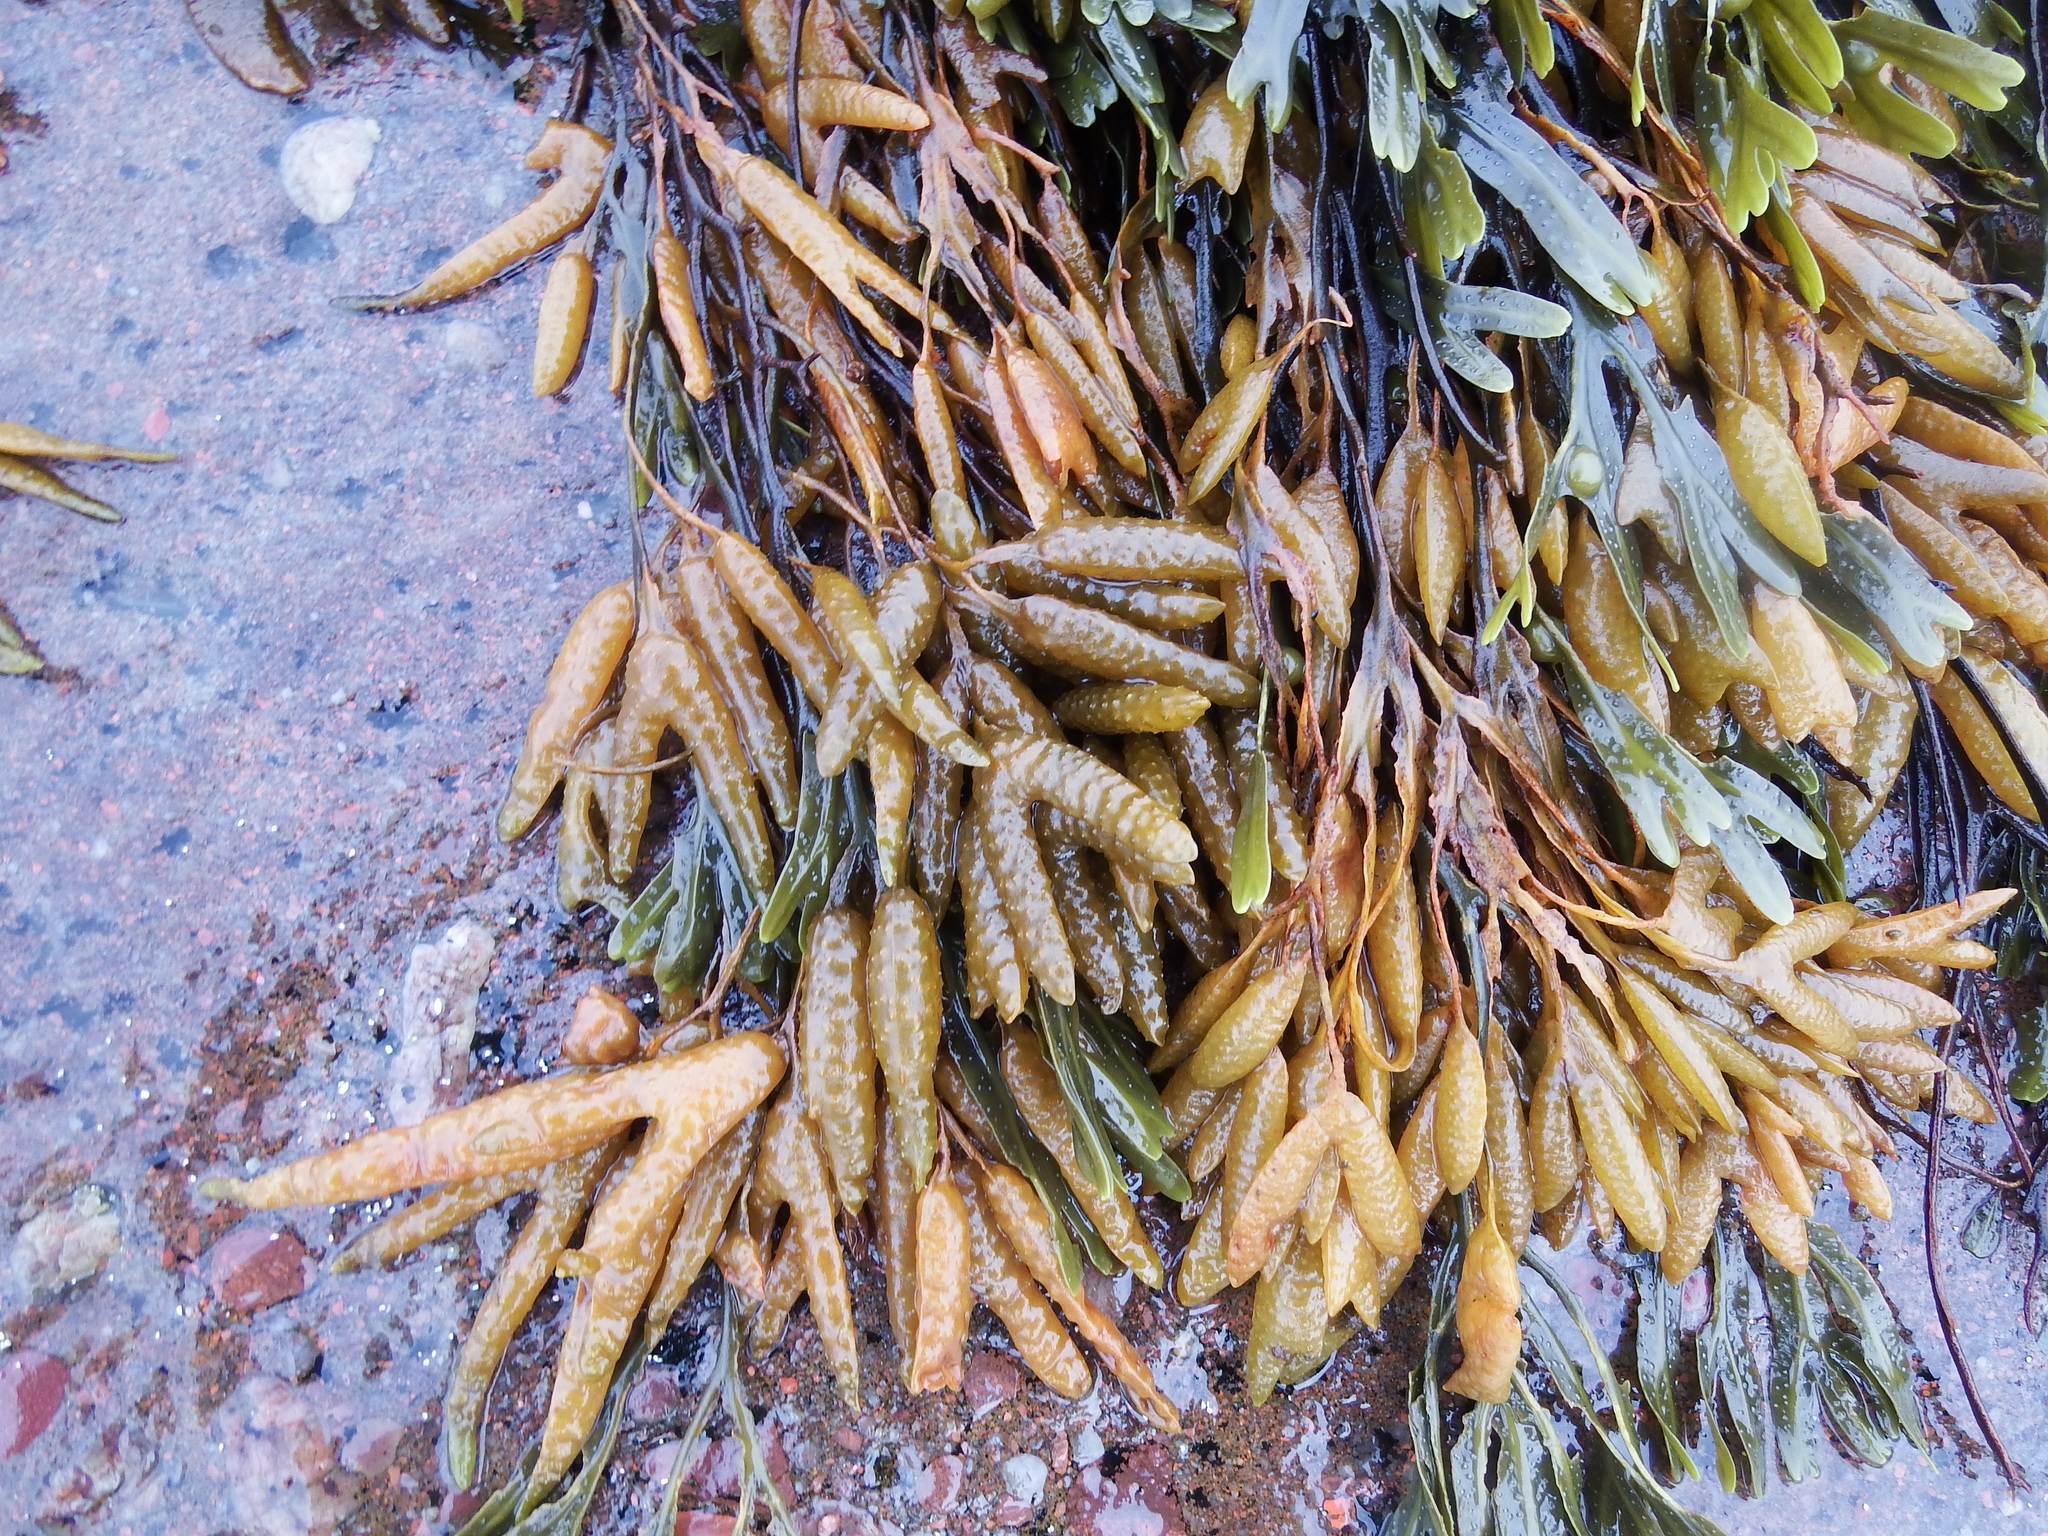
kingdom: Chromista
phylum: Ochrophyta
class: Phaeophyceae
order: Fucales
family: Fucaceae
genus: Fucus
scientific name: Fucus vesiculosus
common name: Bladder wrack
